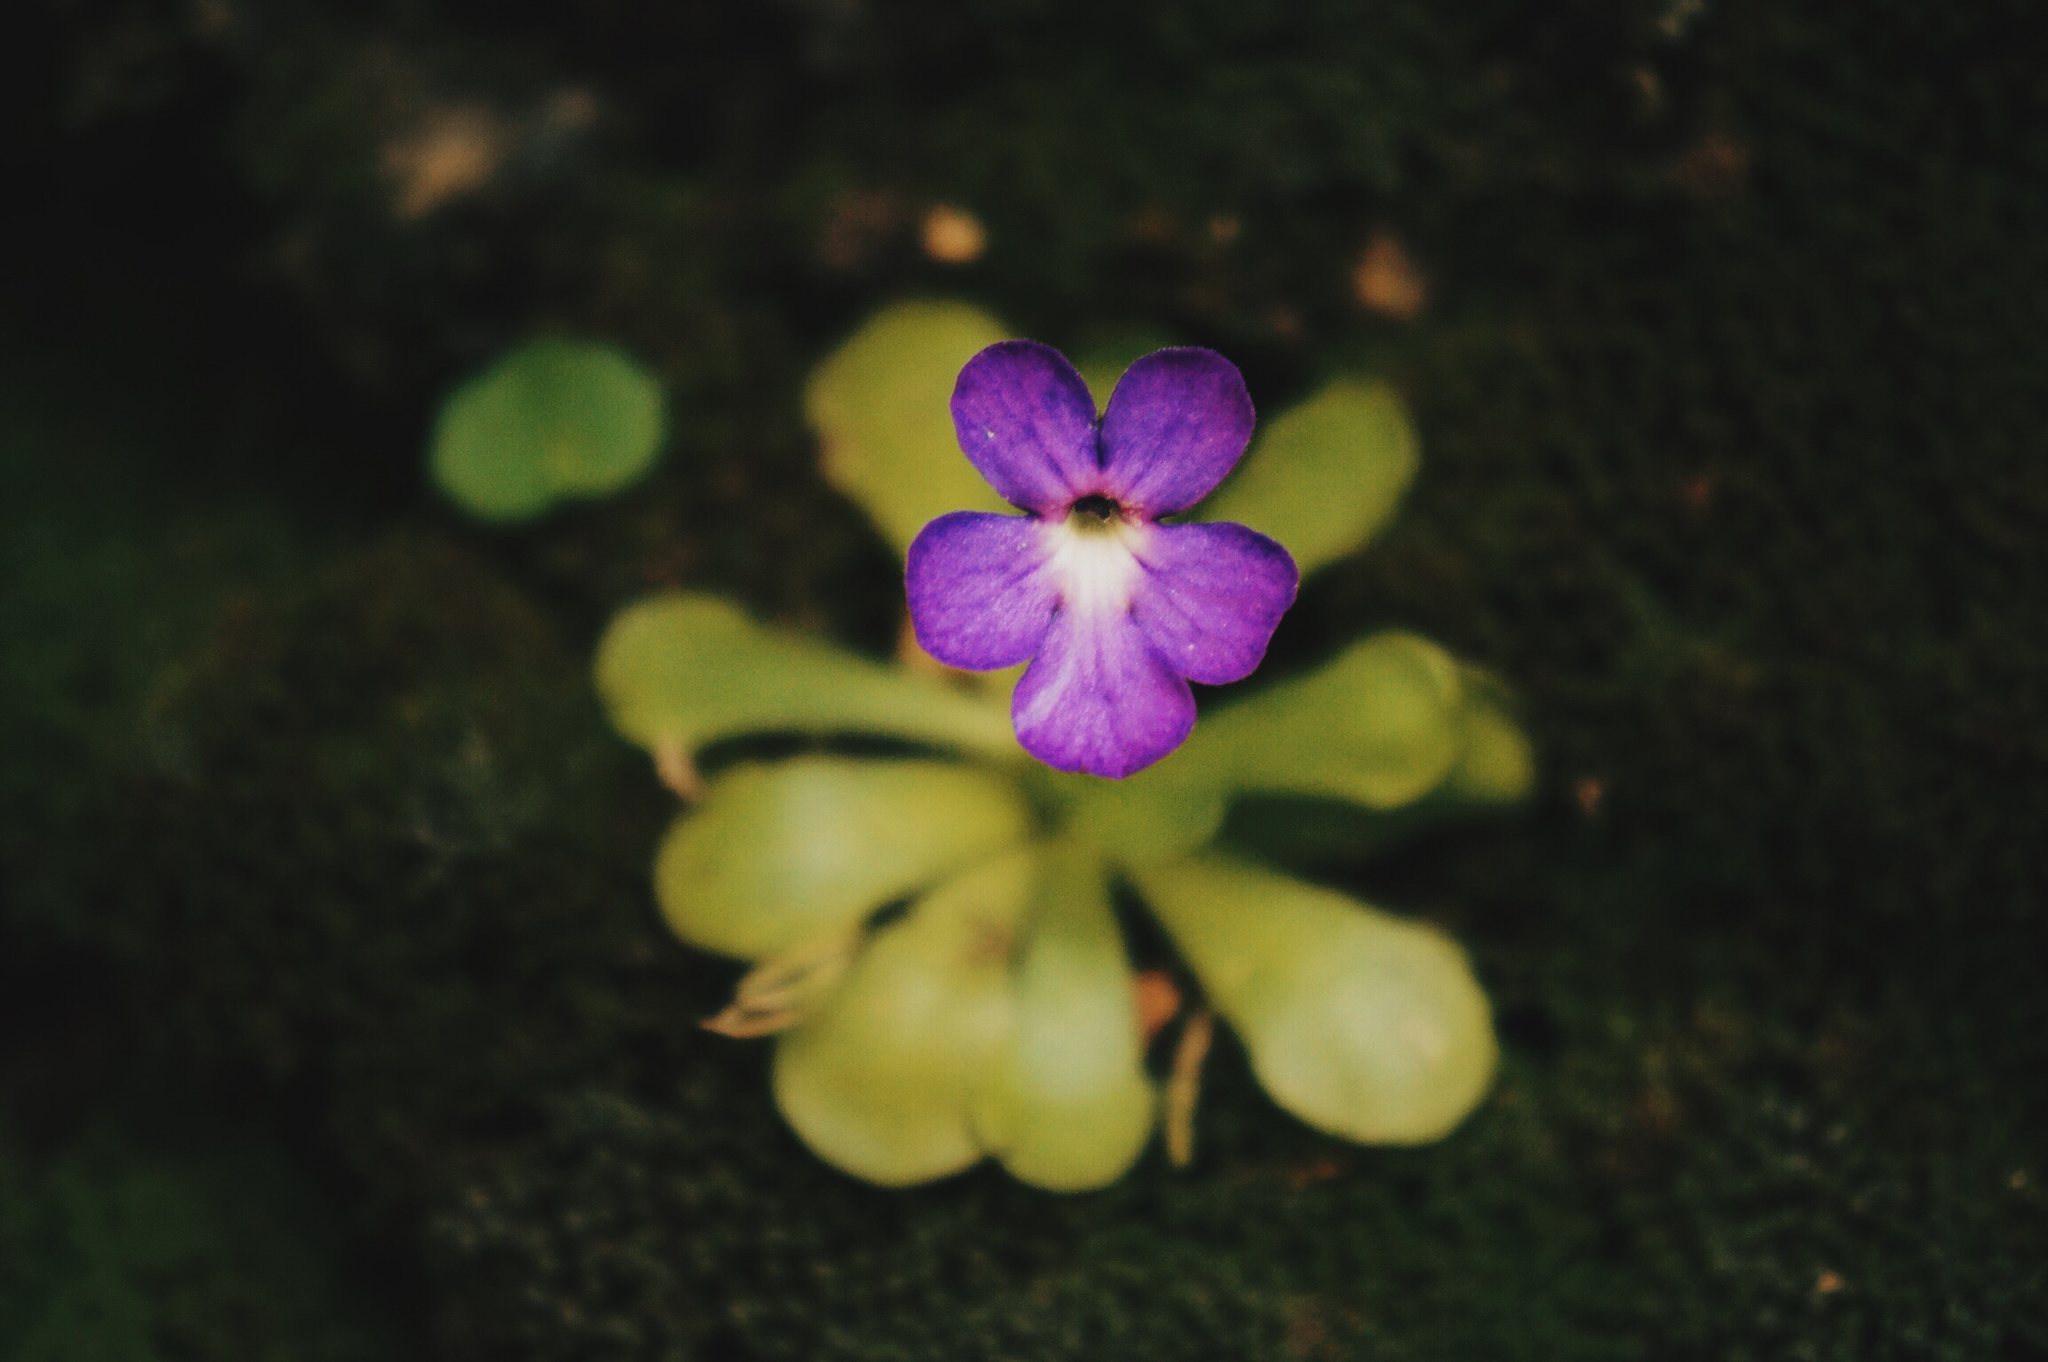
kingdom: Plantae
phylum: Tracheophyta
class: Magnoliopsida
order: Lamiales
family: Lentibulariaceae
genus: Pinguicula
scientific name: Pinguicula cyclosecta
